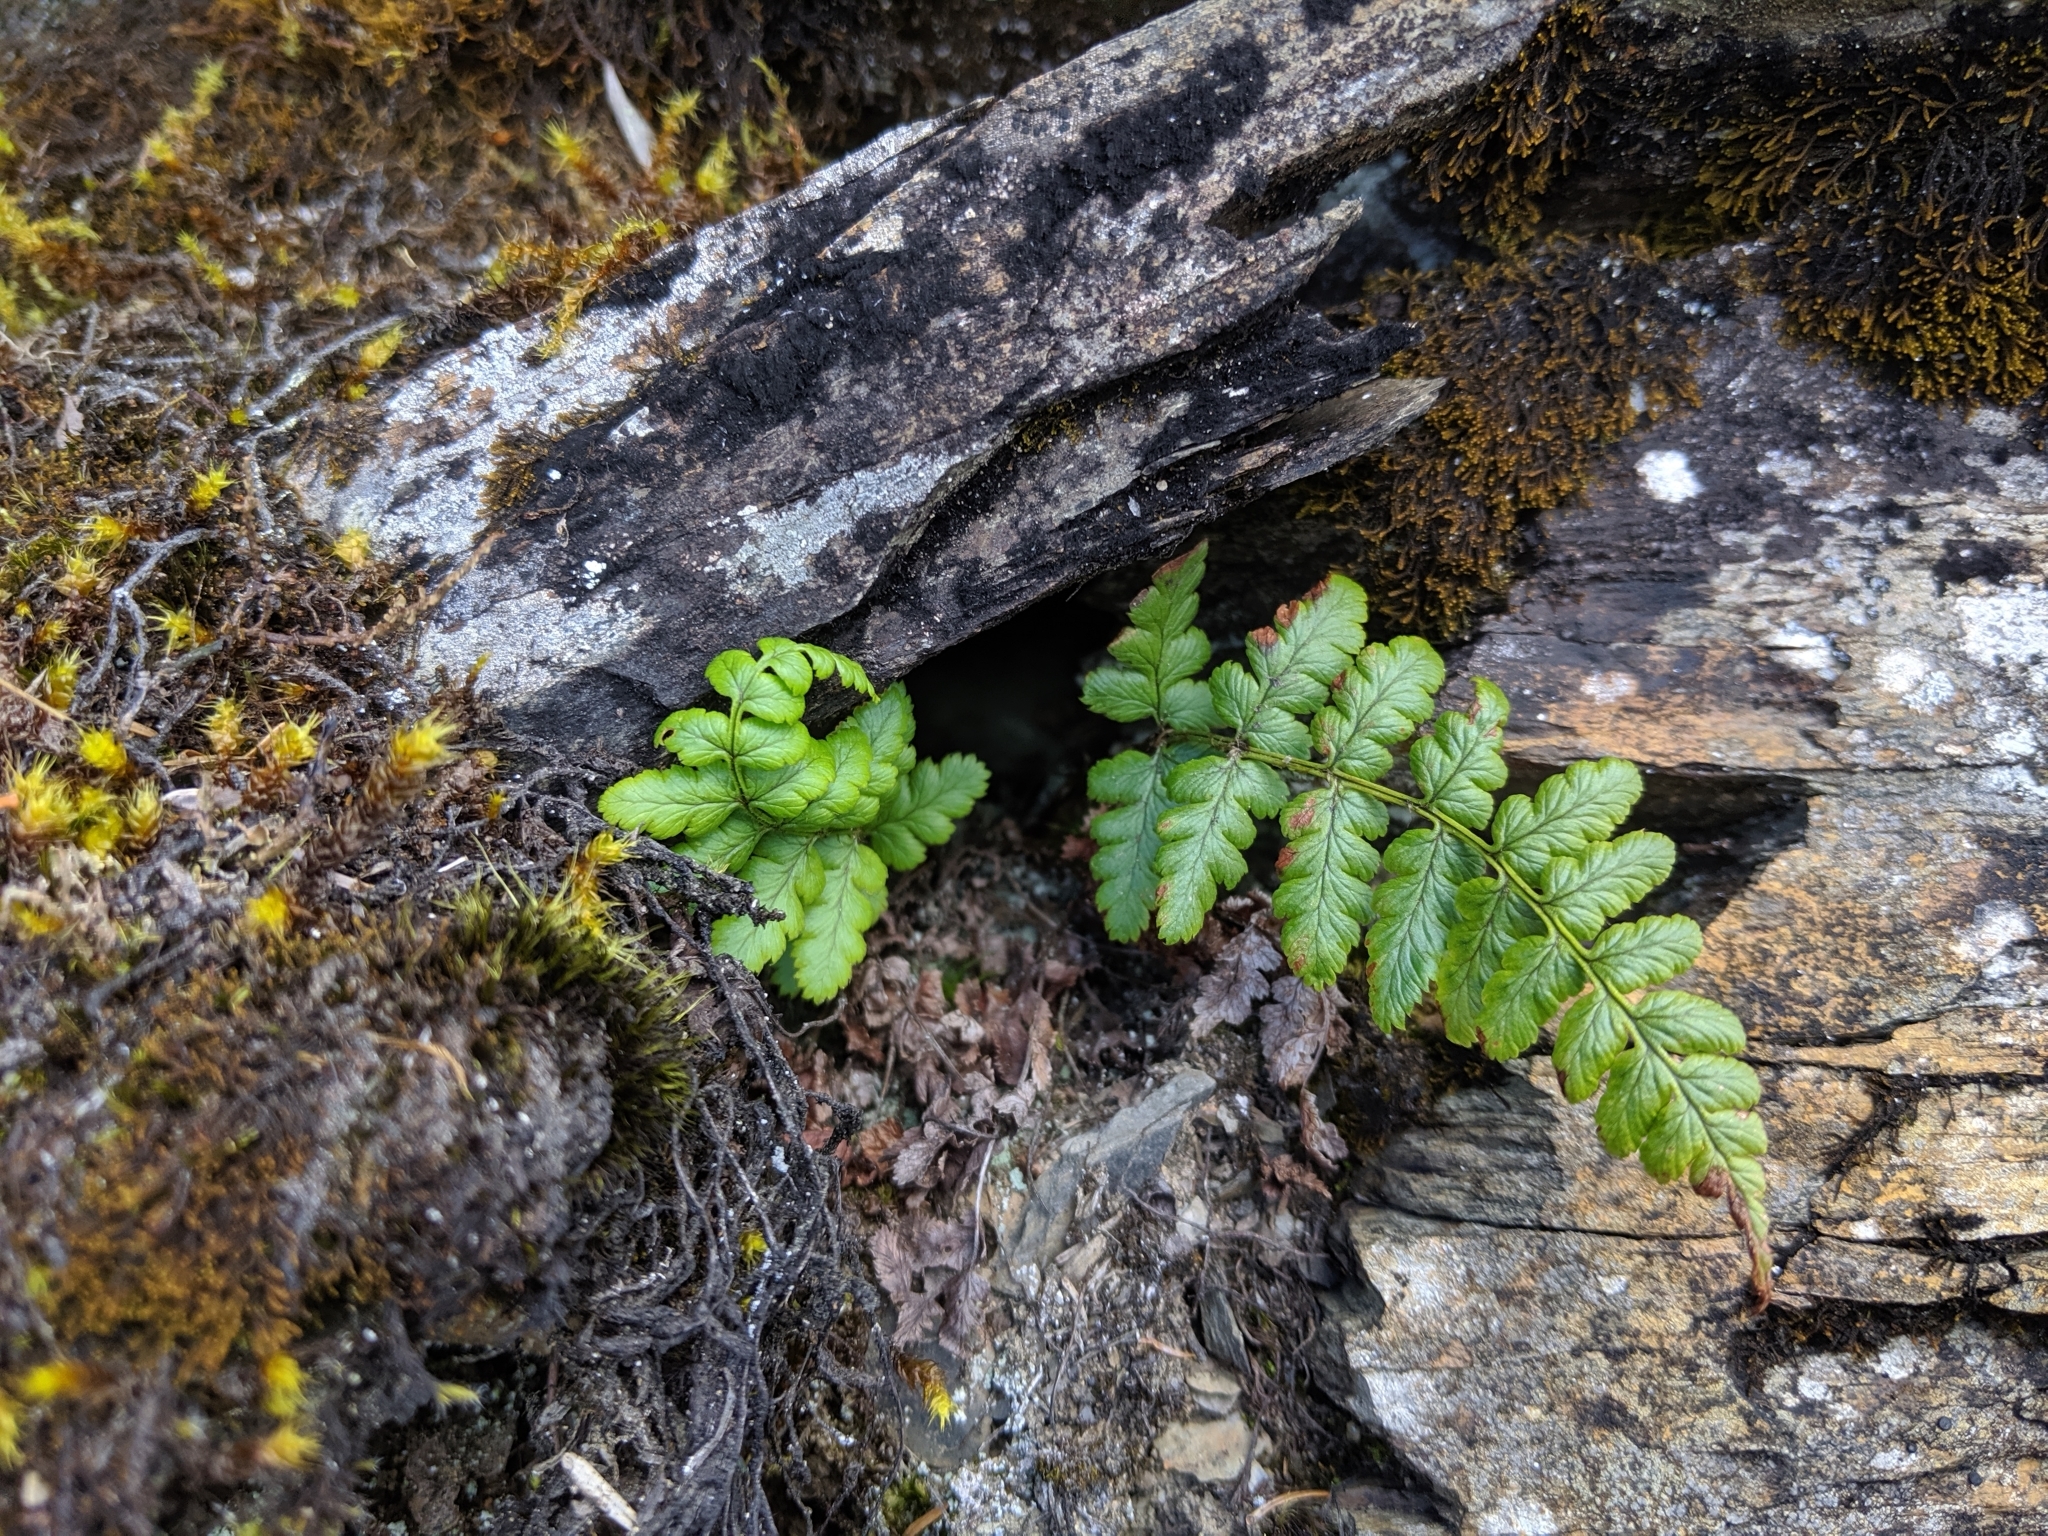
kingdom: Plantae
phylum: Tracheophyta
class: Polypodiopsida
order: Polypodiales
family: Dryopteridaceae
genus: Dryopteris
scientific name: Dryopteris serratodentata
